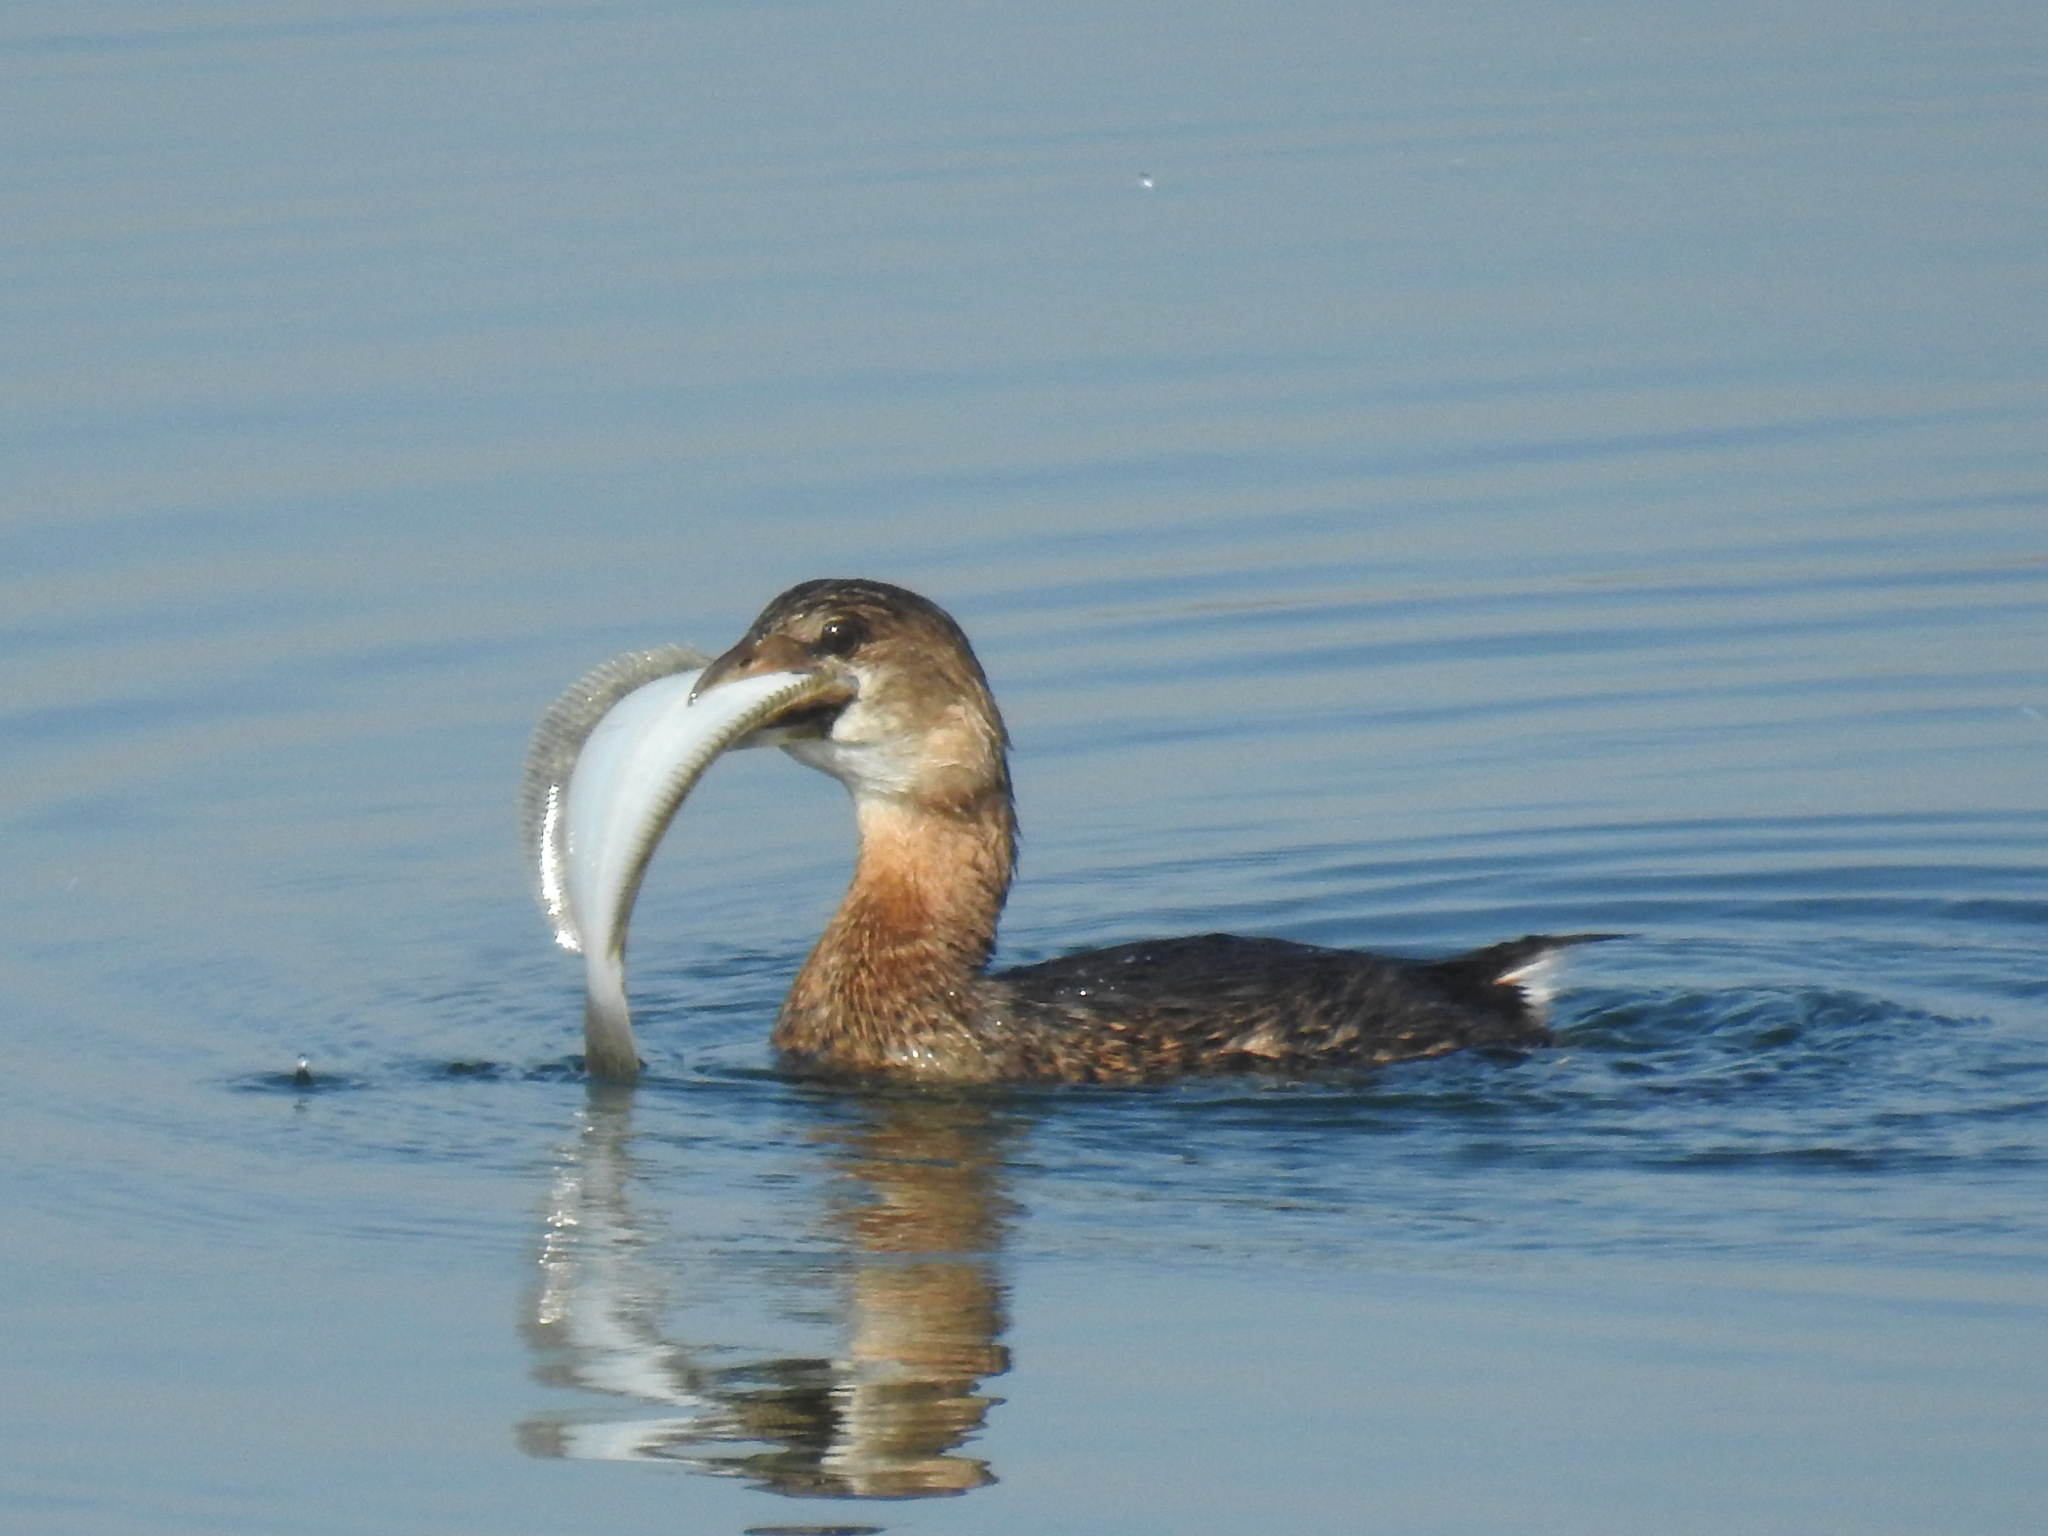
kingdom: Animalia
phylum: Chordata
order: Pleuronectiformes
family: Paralichthyidae
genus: Paralichthys
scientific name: Paralichthys californicus
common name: California halibut
